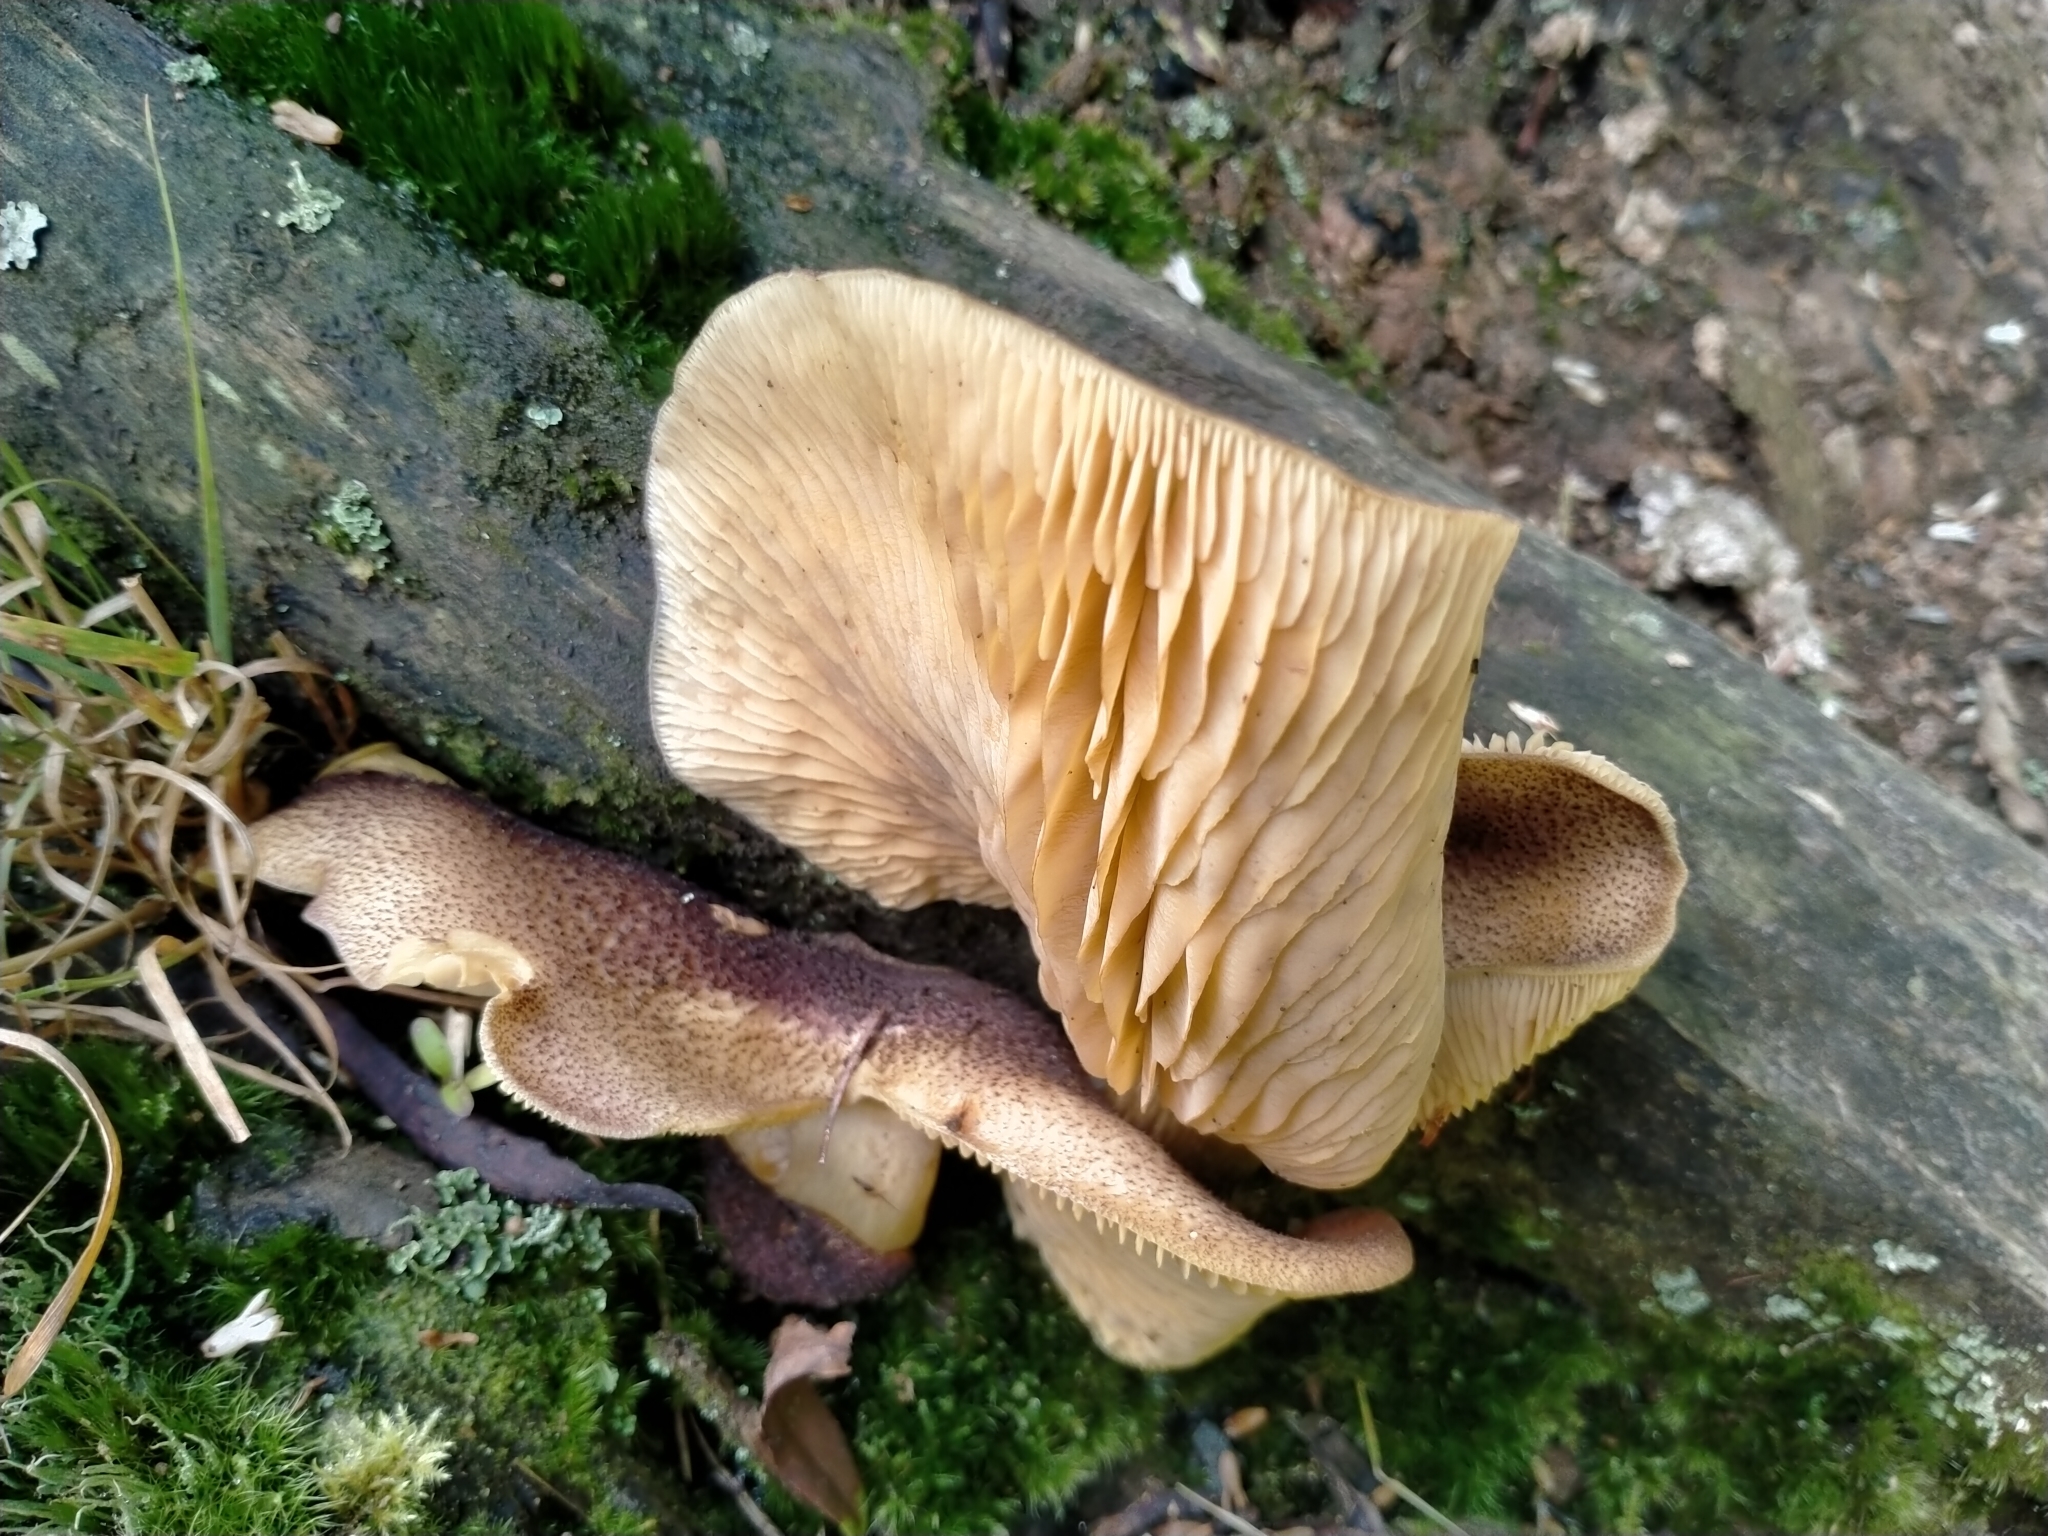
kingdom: Fungi
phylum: Basidiomycota
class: Agaricomycetes
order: Agaricales
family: Tricholomataceae
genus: Tricholomopsis
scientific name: Tricholomopsis ornaticeps
